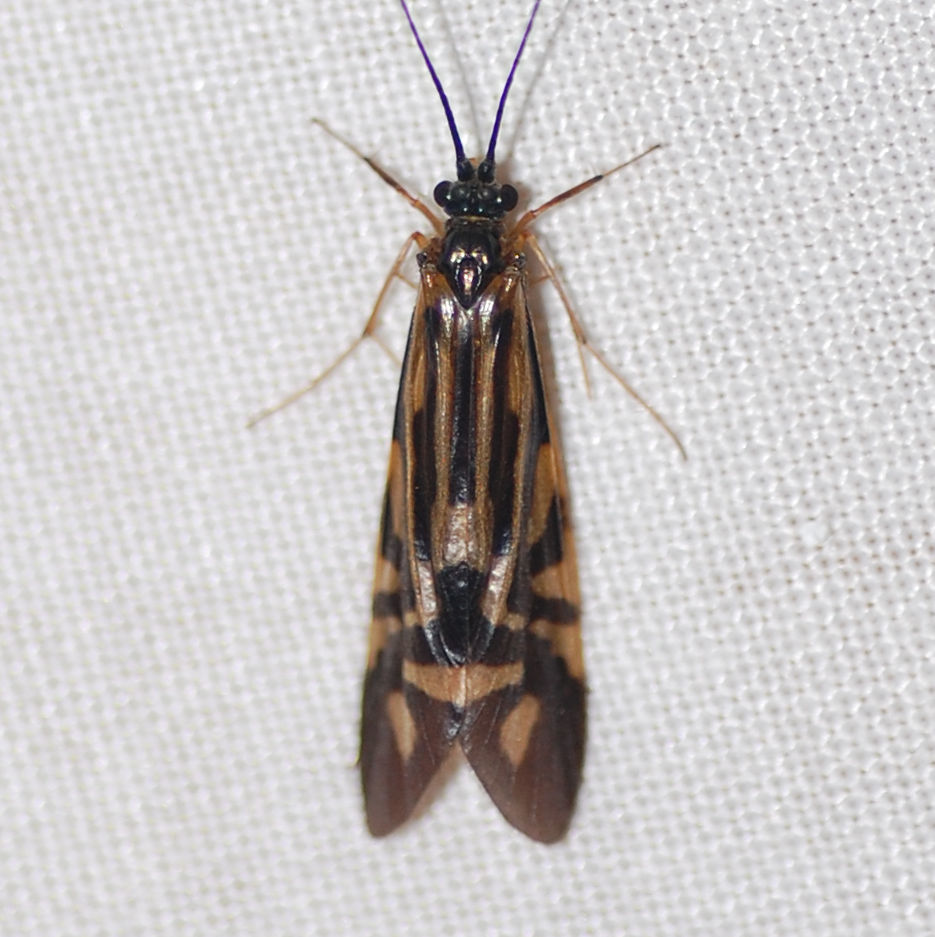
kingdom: Animalia
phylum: Arthropoda
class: Insecta
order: Trichoptera
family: Hydropsychidae
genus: Macrostemum
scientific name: Macrostemum zebratum
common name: Zebra caddisfly
